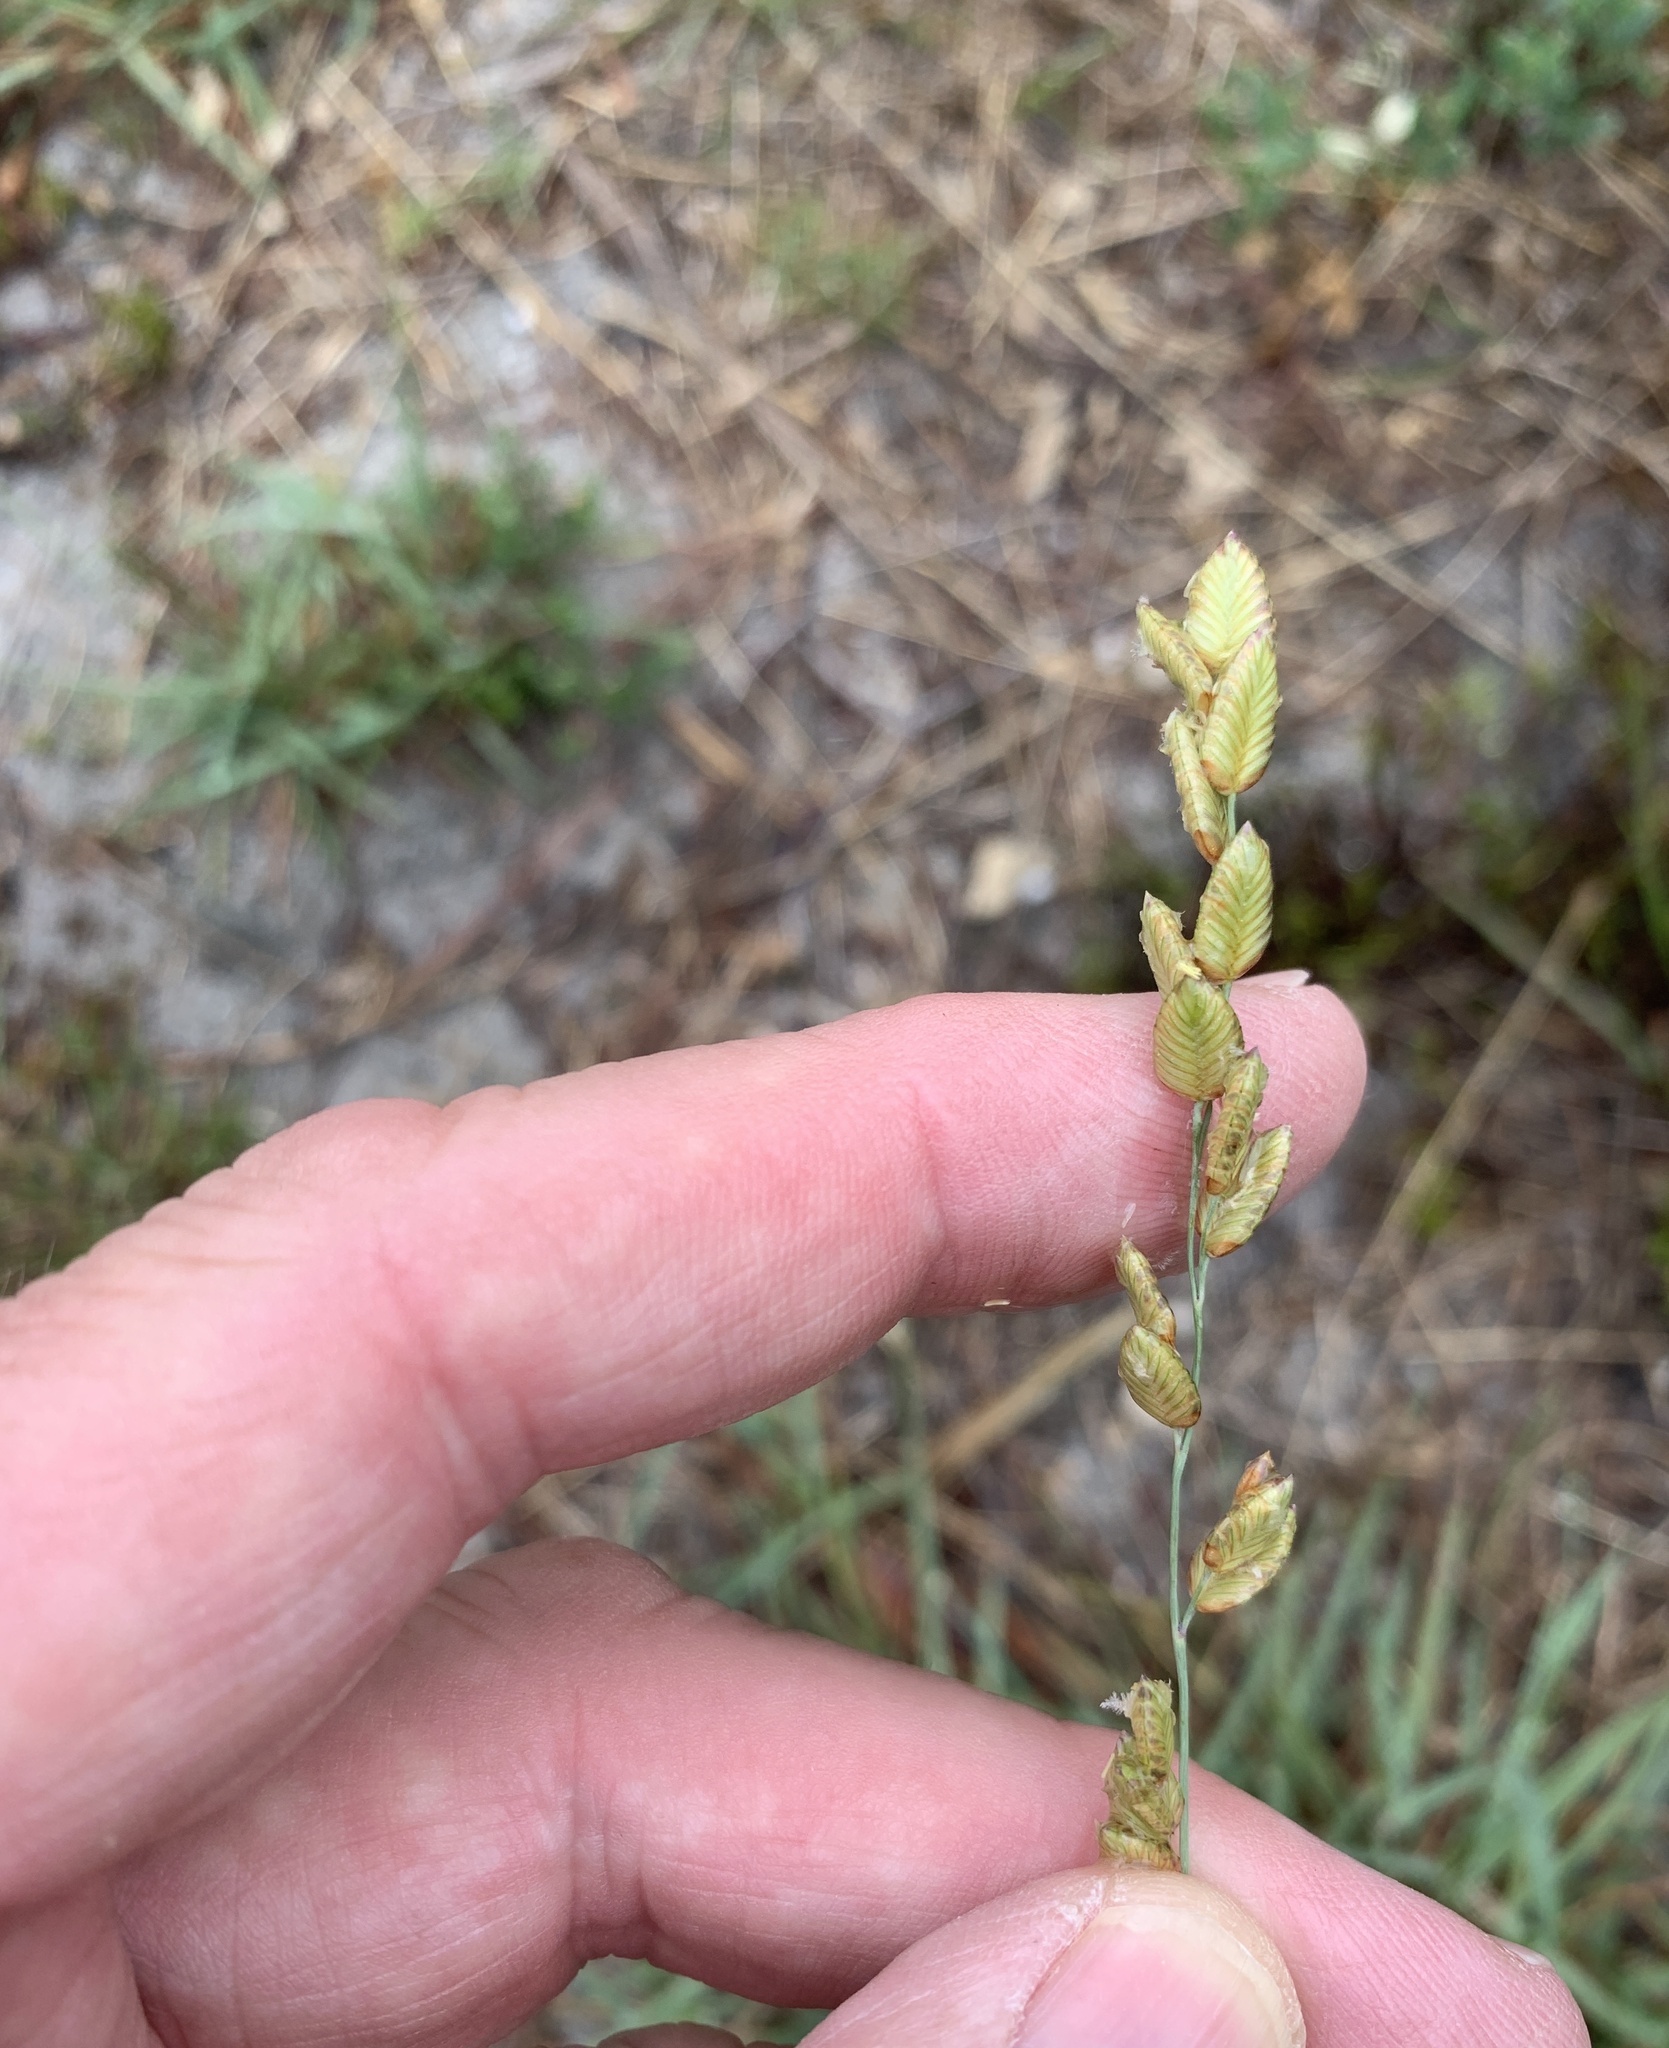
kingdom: Plantae
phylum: Tracheophyta
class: Liliopsida
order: Poales
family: Poaceae
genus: Eragrostis
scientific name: Eragrostis capensis
